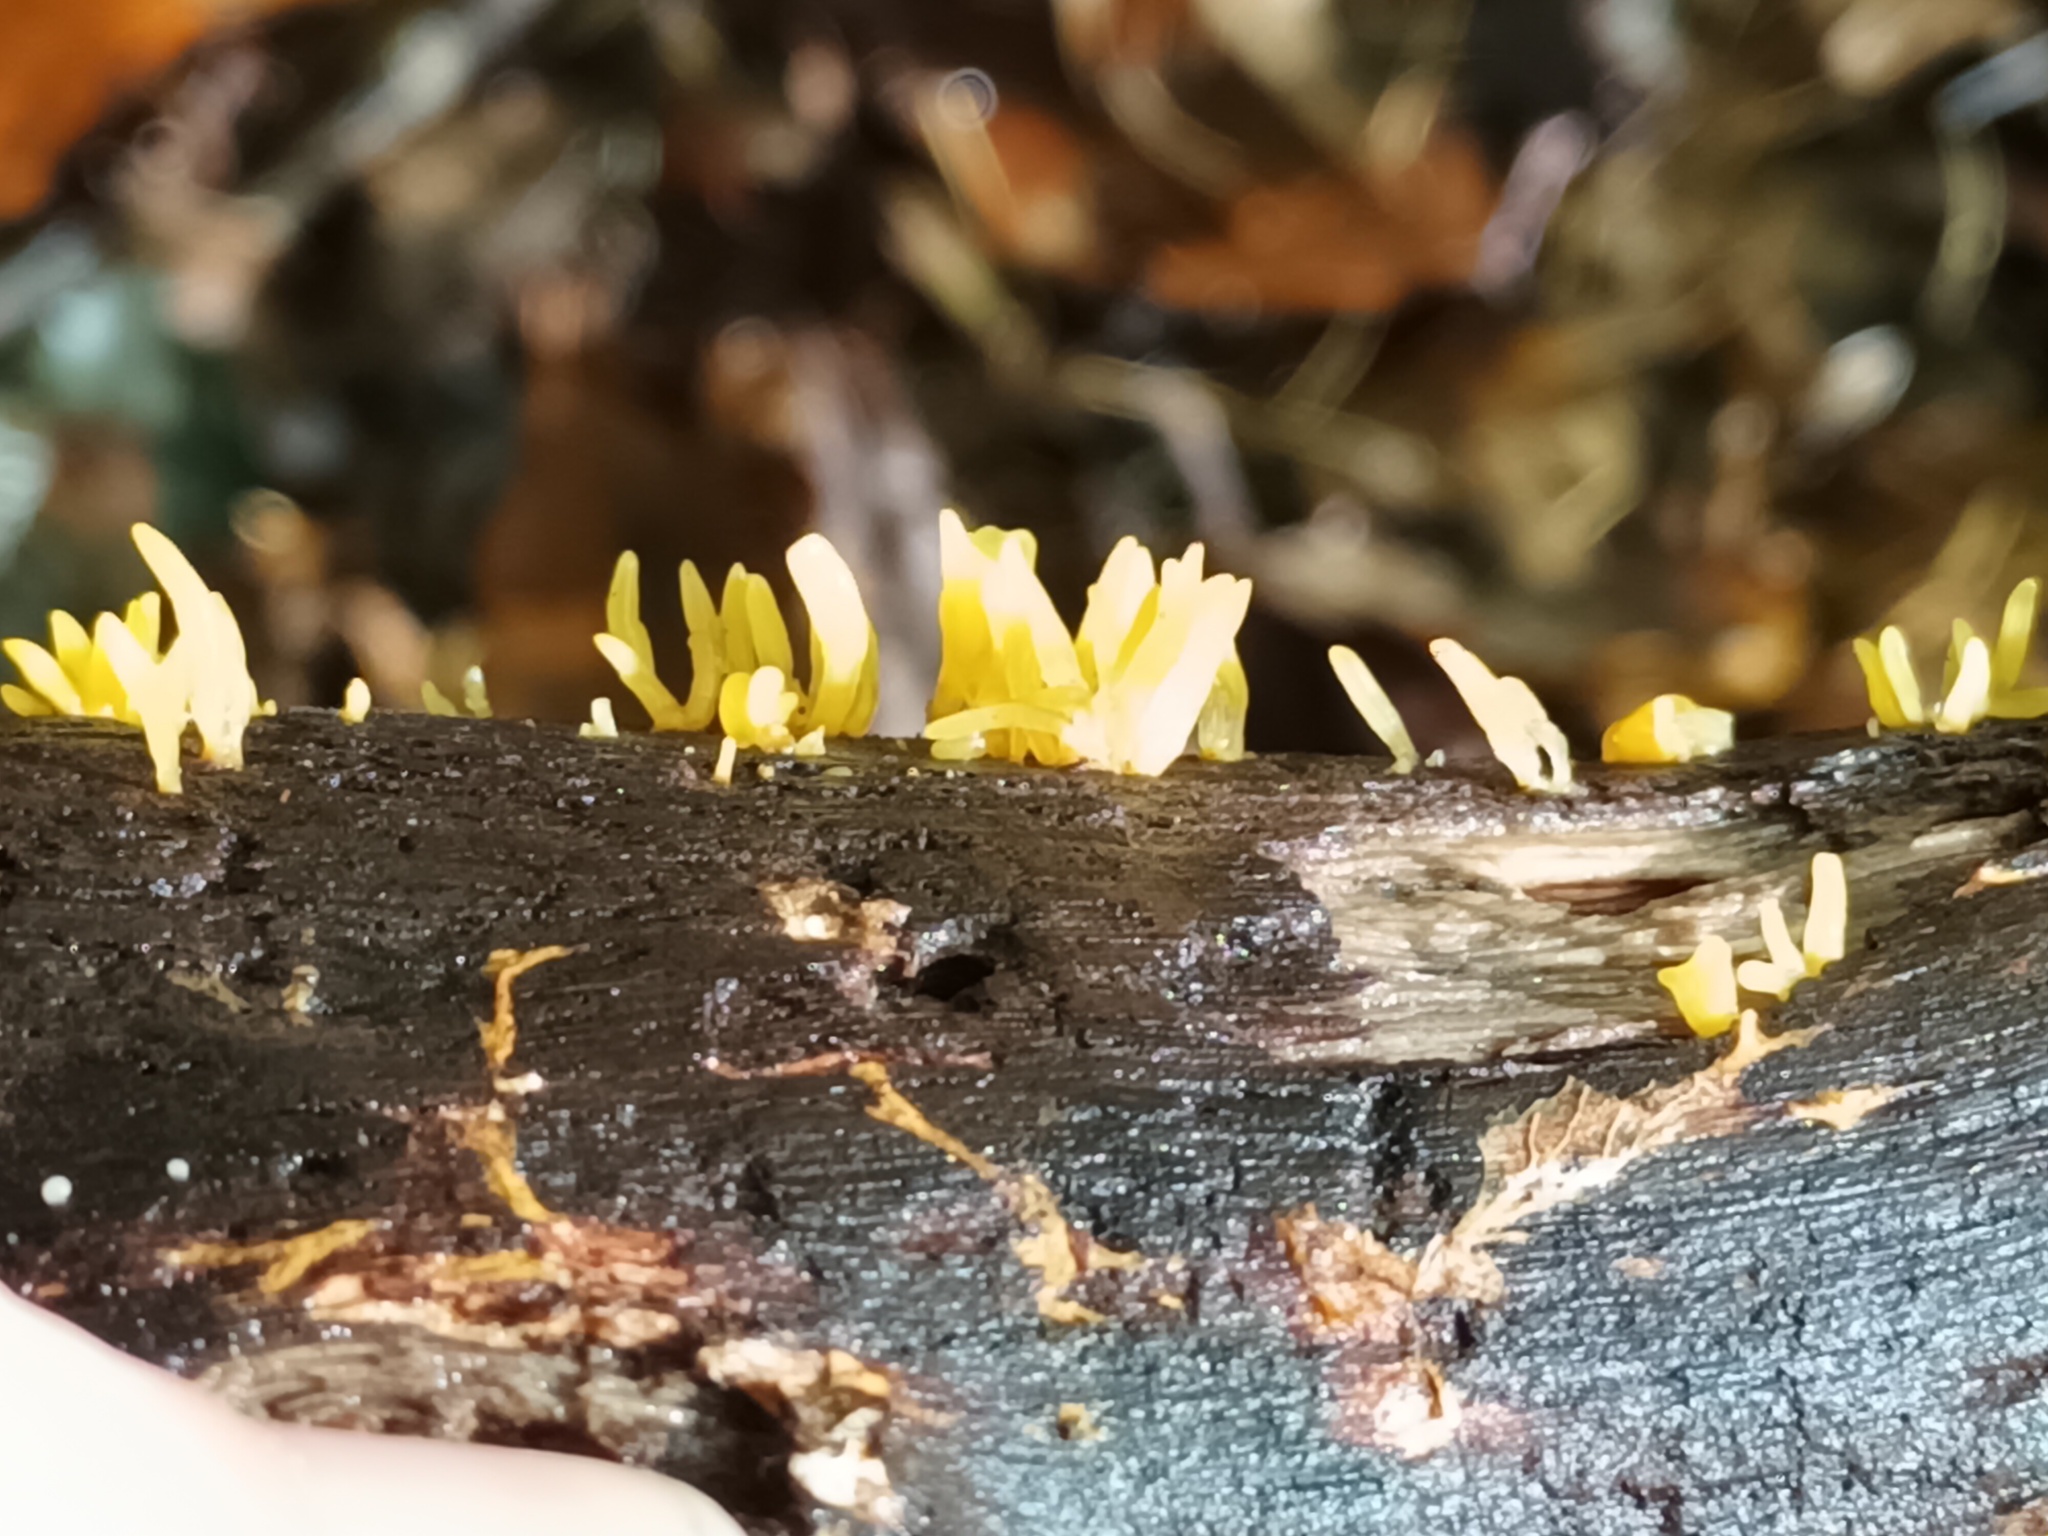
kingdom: Fungi
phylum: Basidiomycota
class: Dacrymycetes
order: Dacrymycetales
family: Dacrymycetaceae
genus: Calocera
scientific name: Calocera cornea
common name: Small stagshorn
